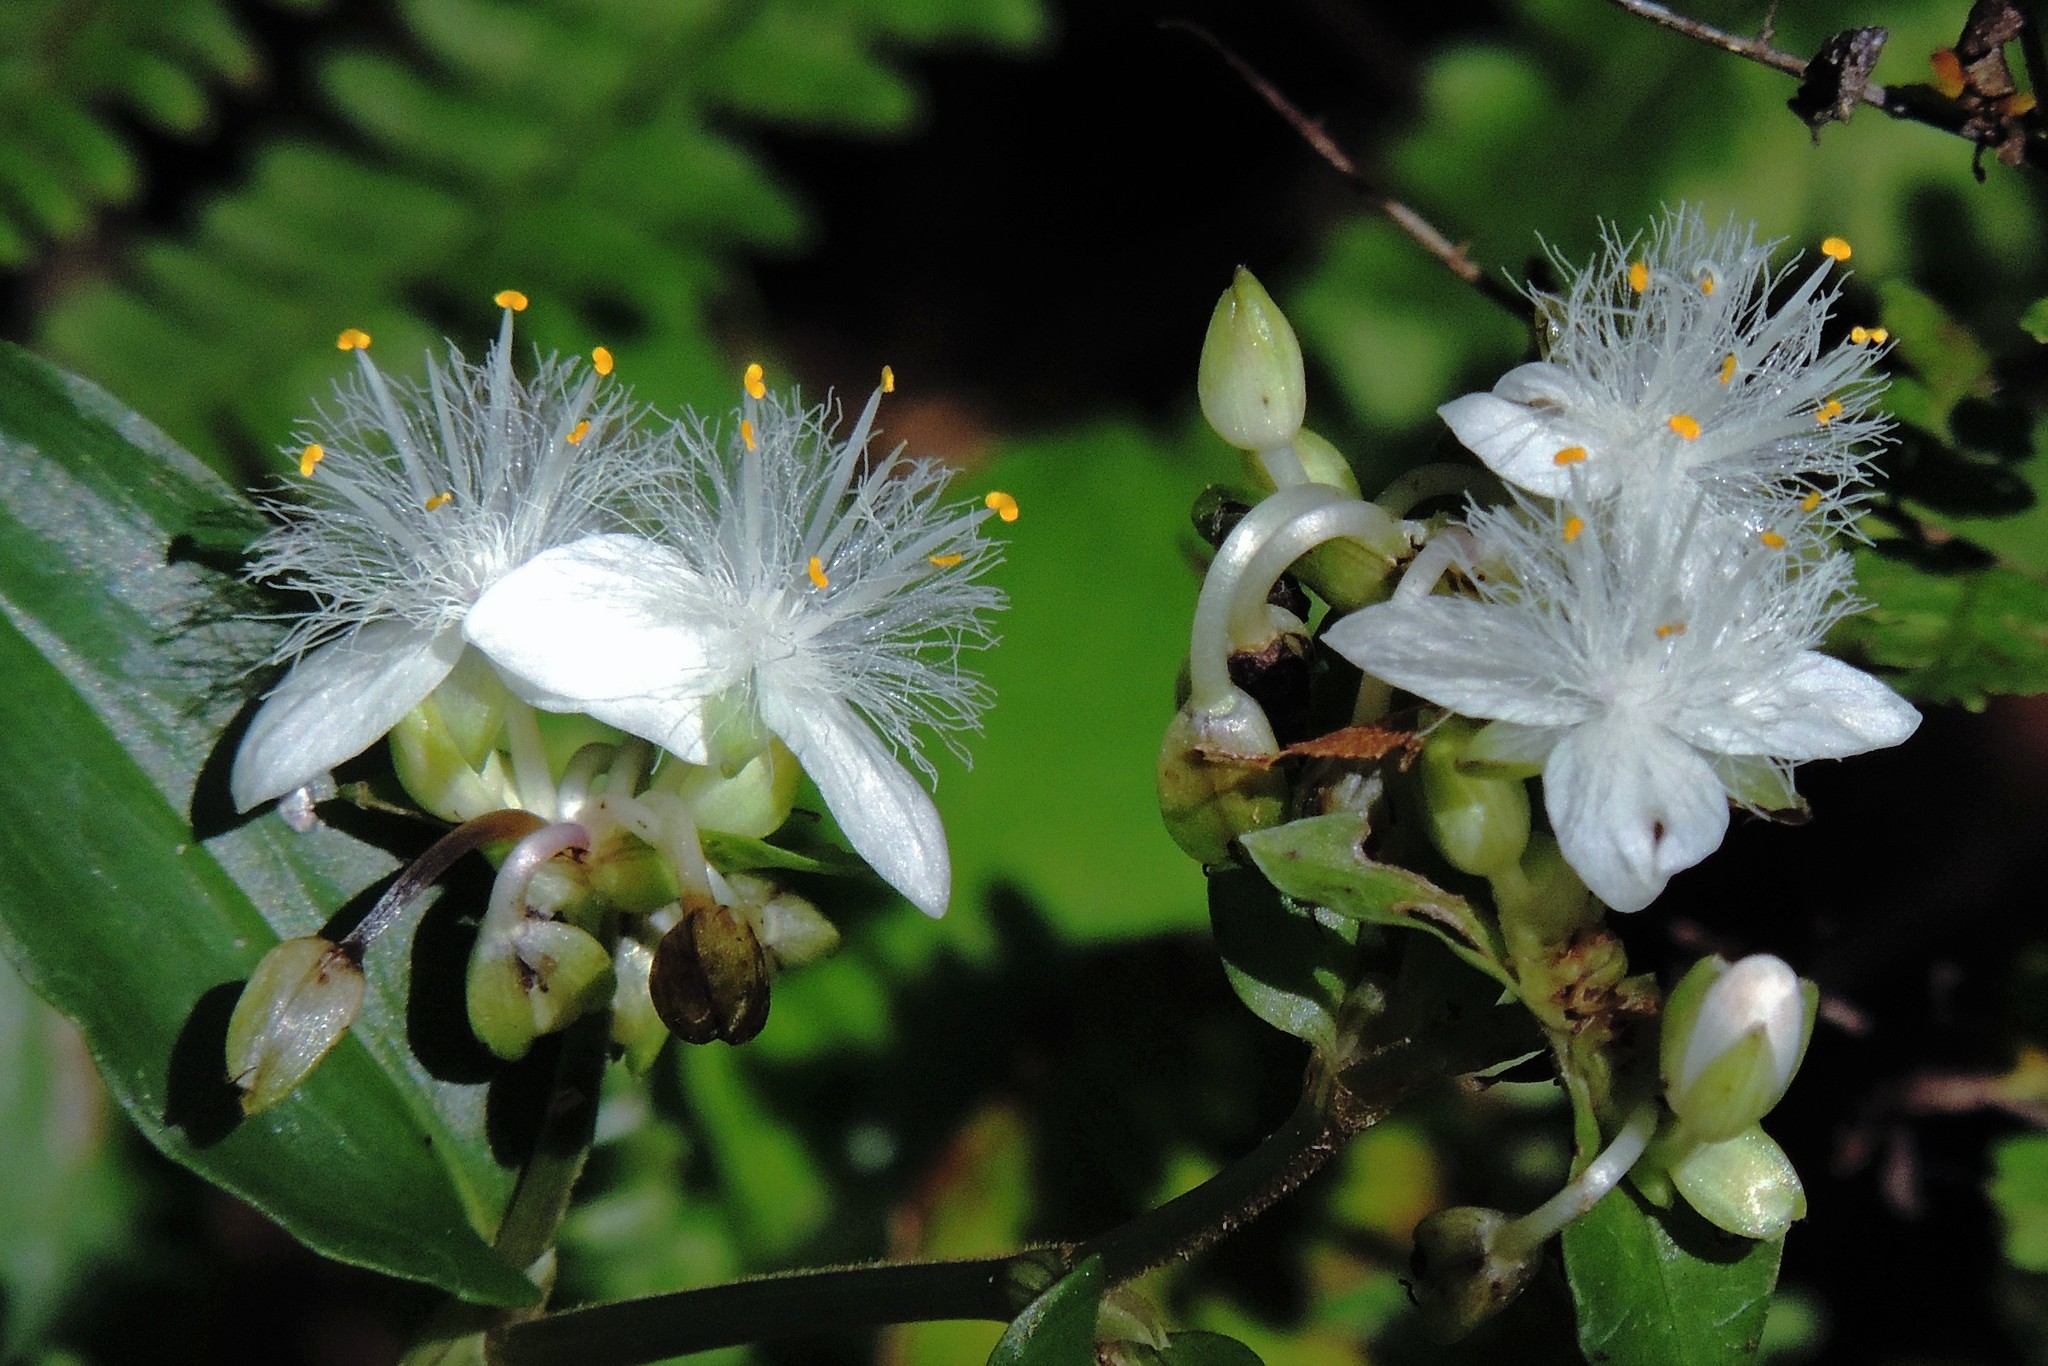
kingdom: Plantae
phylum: Tracheophyta
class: Liliopsida
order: Commelinales
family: Commelinaceae
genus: Tradescantia
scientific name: Tradescantia fluminensis
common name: Wandering-jew
